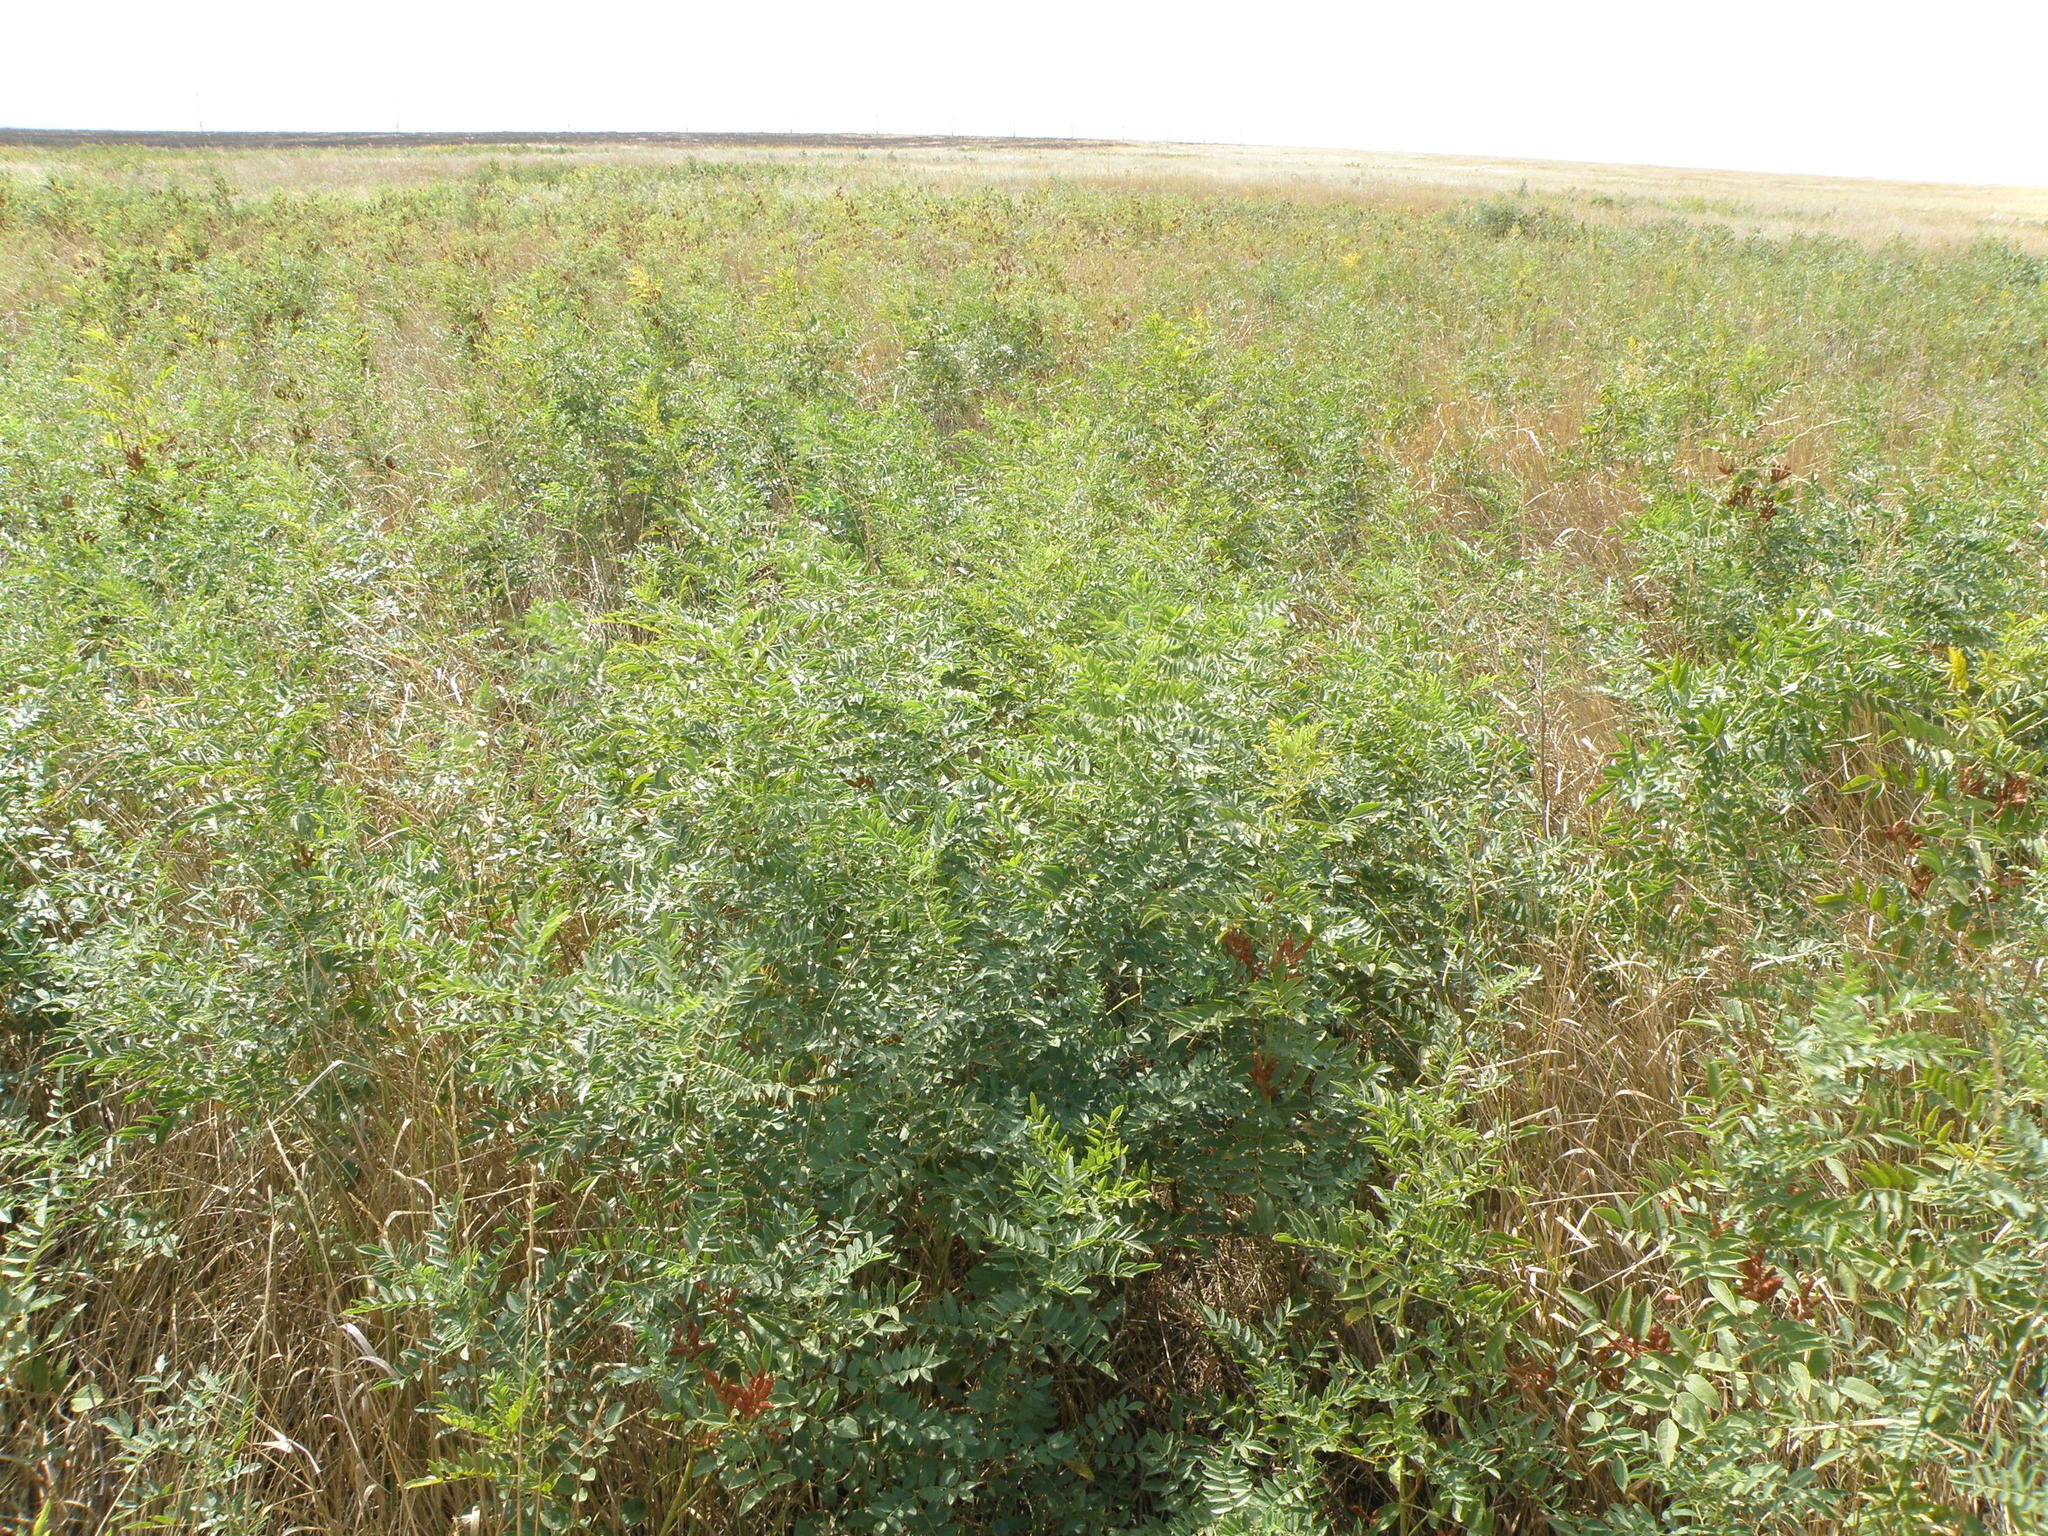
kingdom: Plantae
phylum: Tracheophyta
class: Magnoliopsida
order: Fabales
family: Fabaceae
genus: Glycyrrhiza
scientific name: Glycyrrhiza glabra
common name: Liquorice
